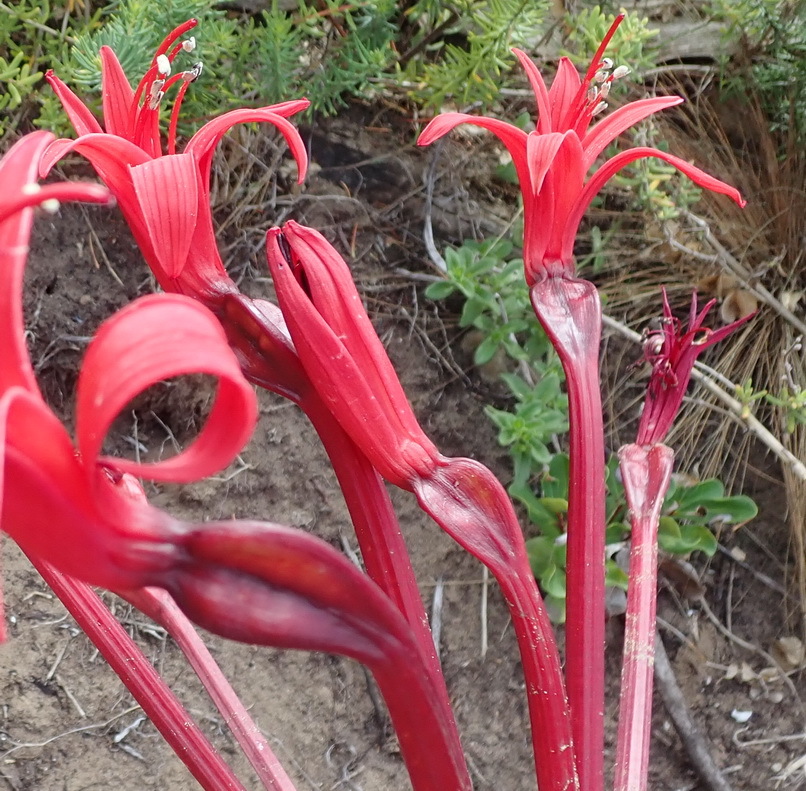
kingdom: Plantae
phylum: Tracheophyta
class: Liliopsida
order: Asparagales
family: Amaryllidaceae
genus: Brunsvigia
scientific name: Brunsvigia orientalis
